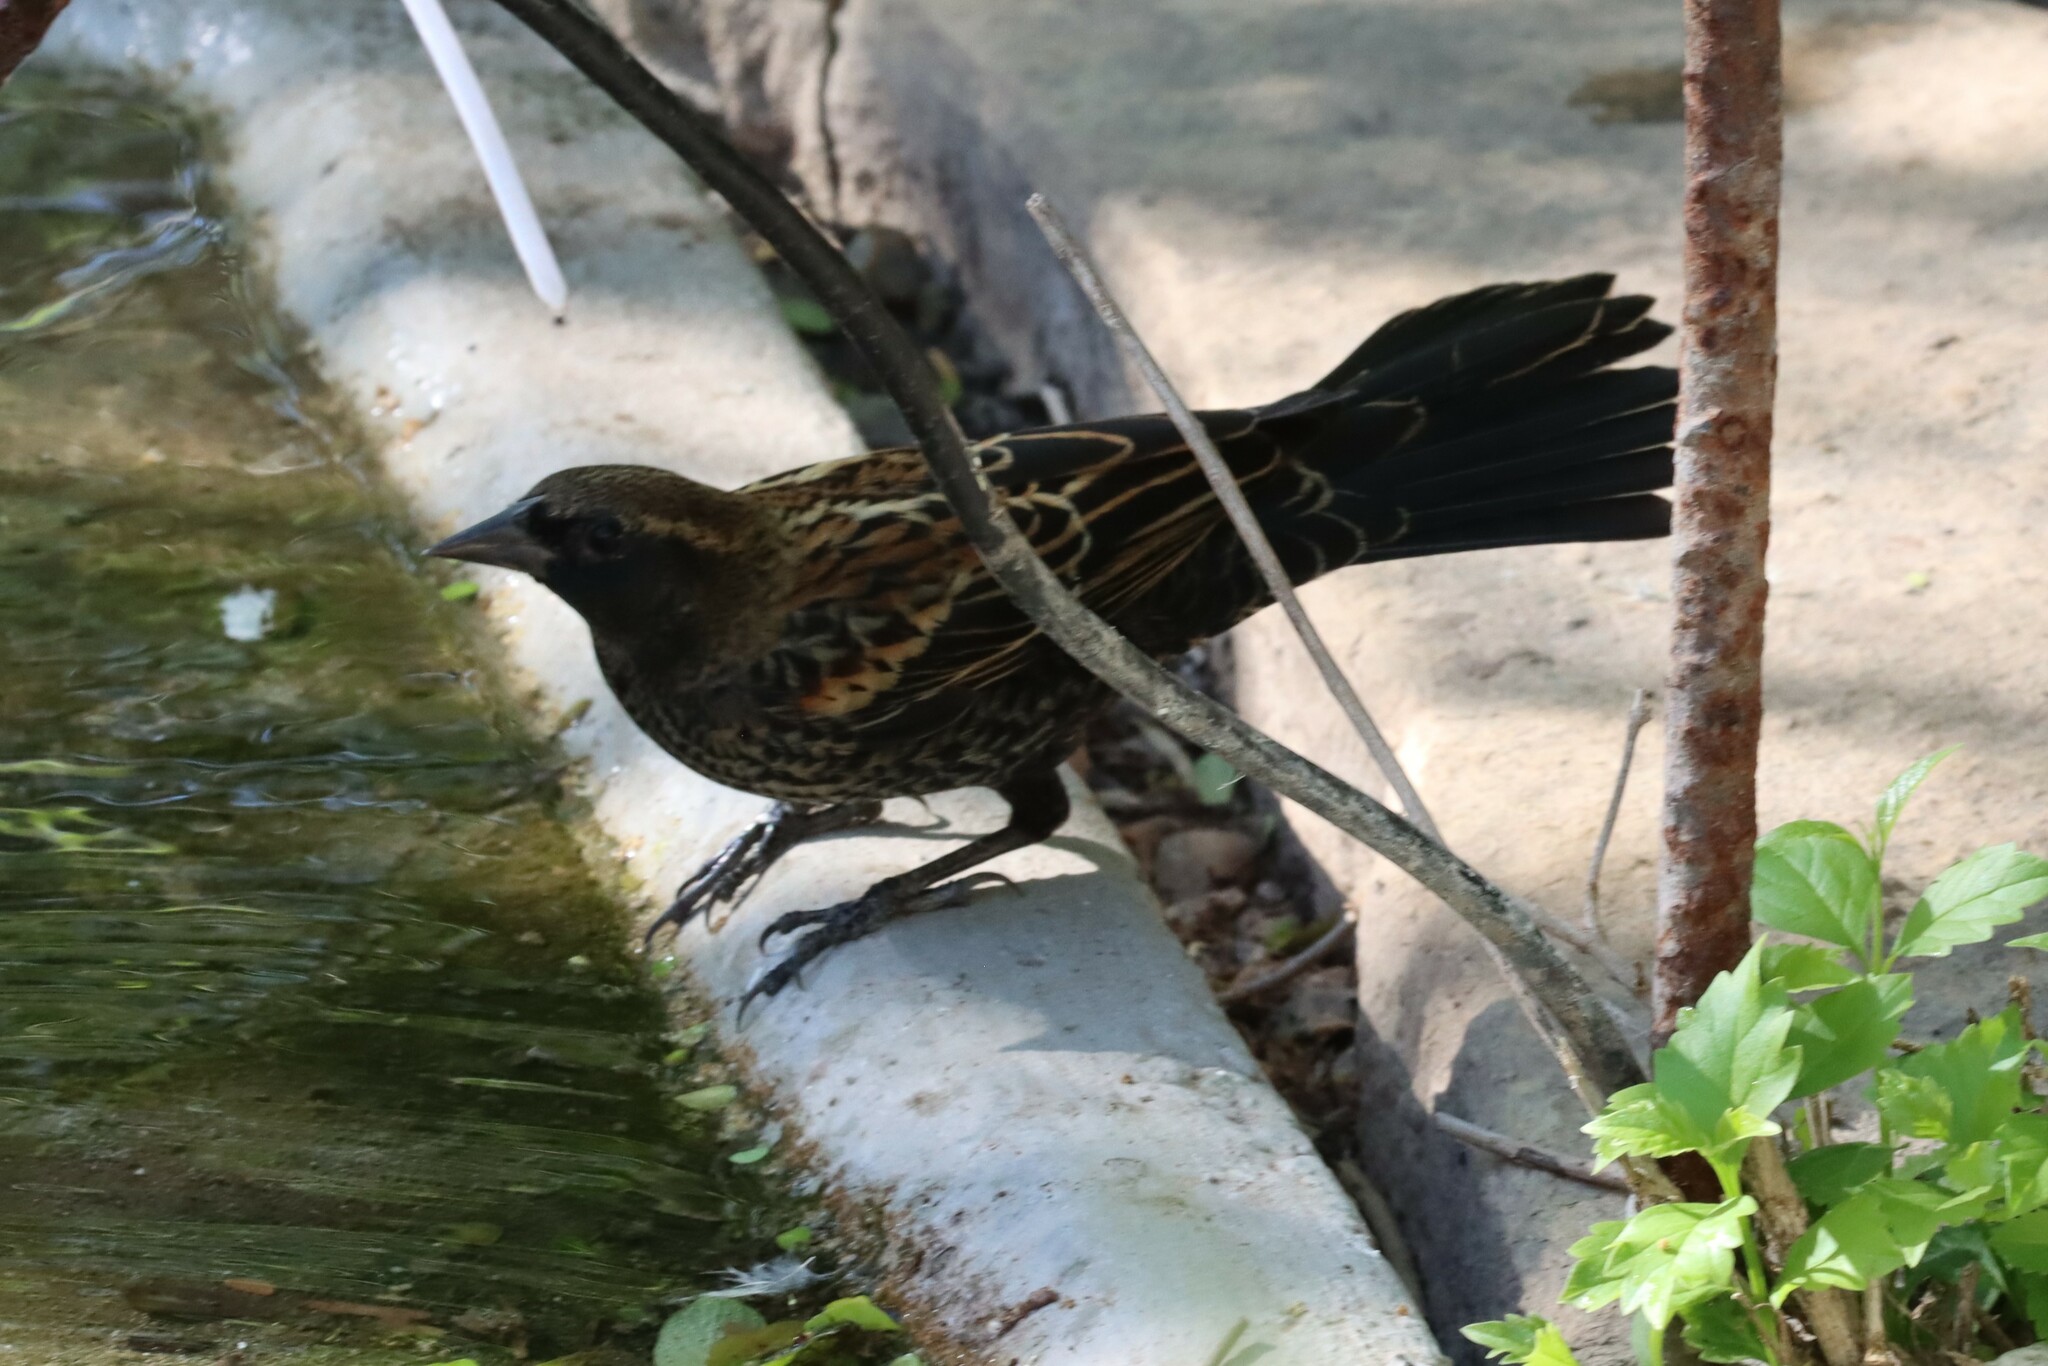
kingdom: Animalia
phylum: Chordata
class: Aves
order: Passeriformes
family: Icteridae
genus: Agelaius
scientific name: Agelaius phoeniceus
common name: Red-winged blackbird
